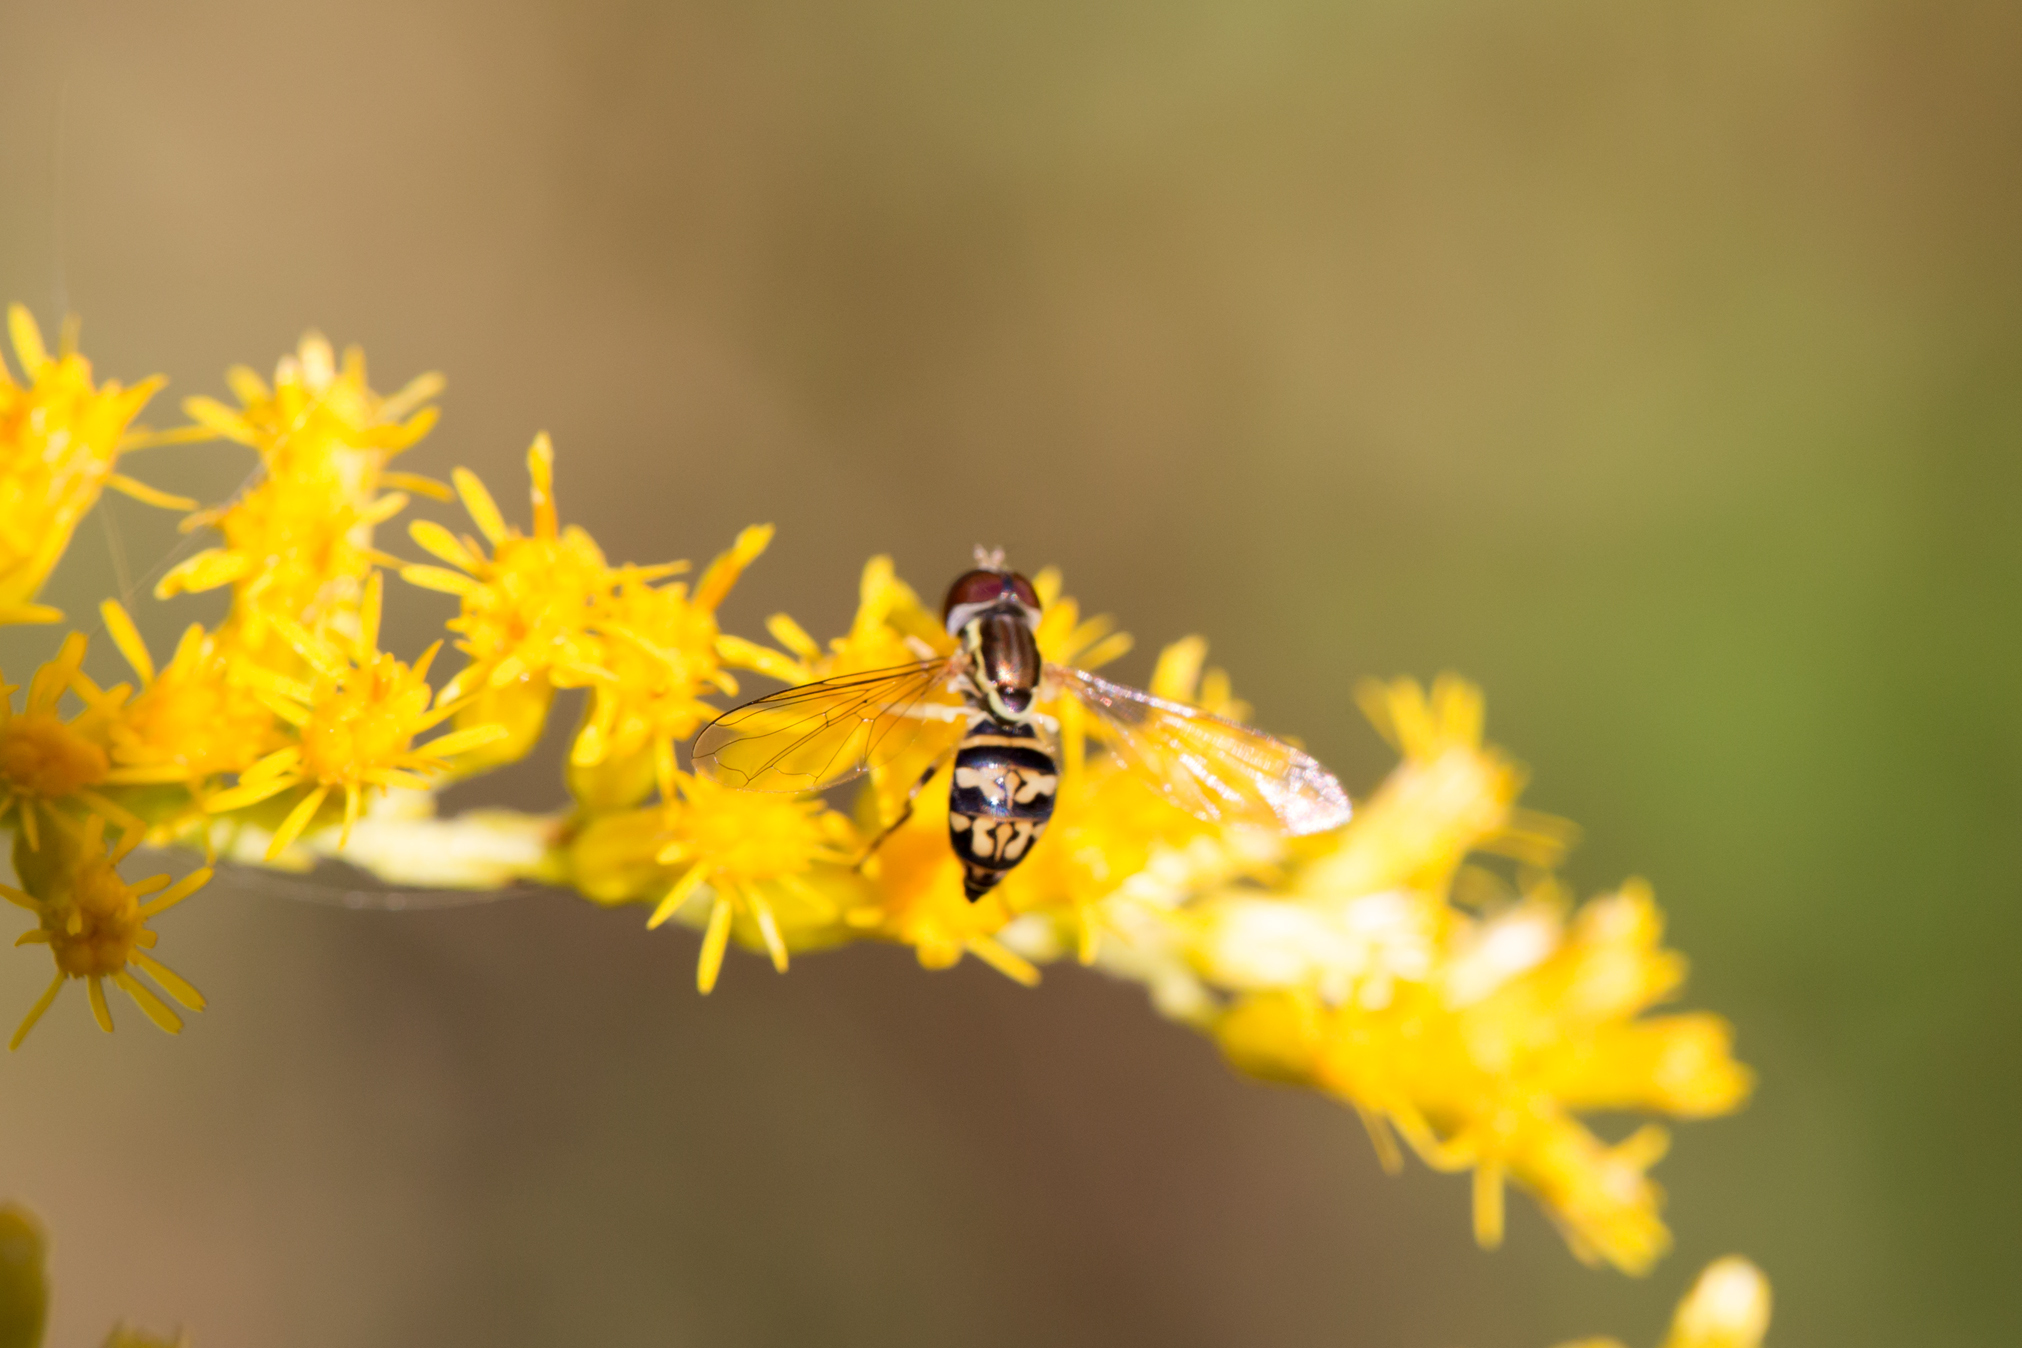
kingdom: Animalia
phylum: Arthropoda
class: Insecta
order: Diptera
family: Syrphidae
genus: Toxomerus
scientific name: Toxomerus geminatus
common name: Eastern calligrapher
